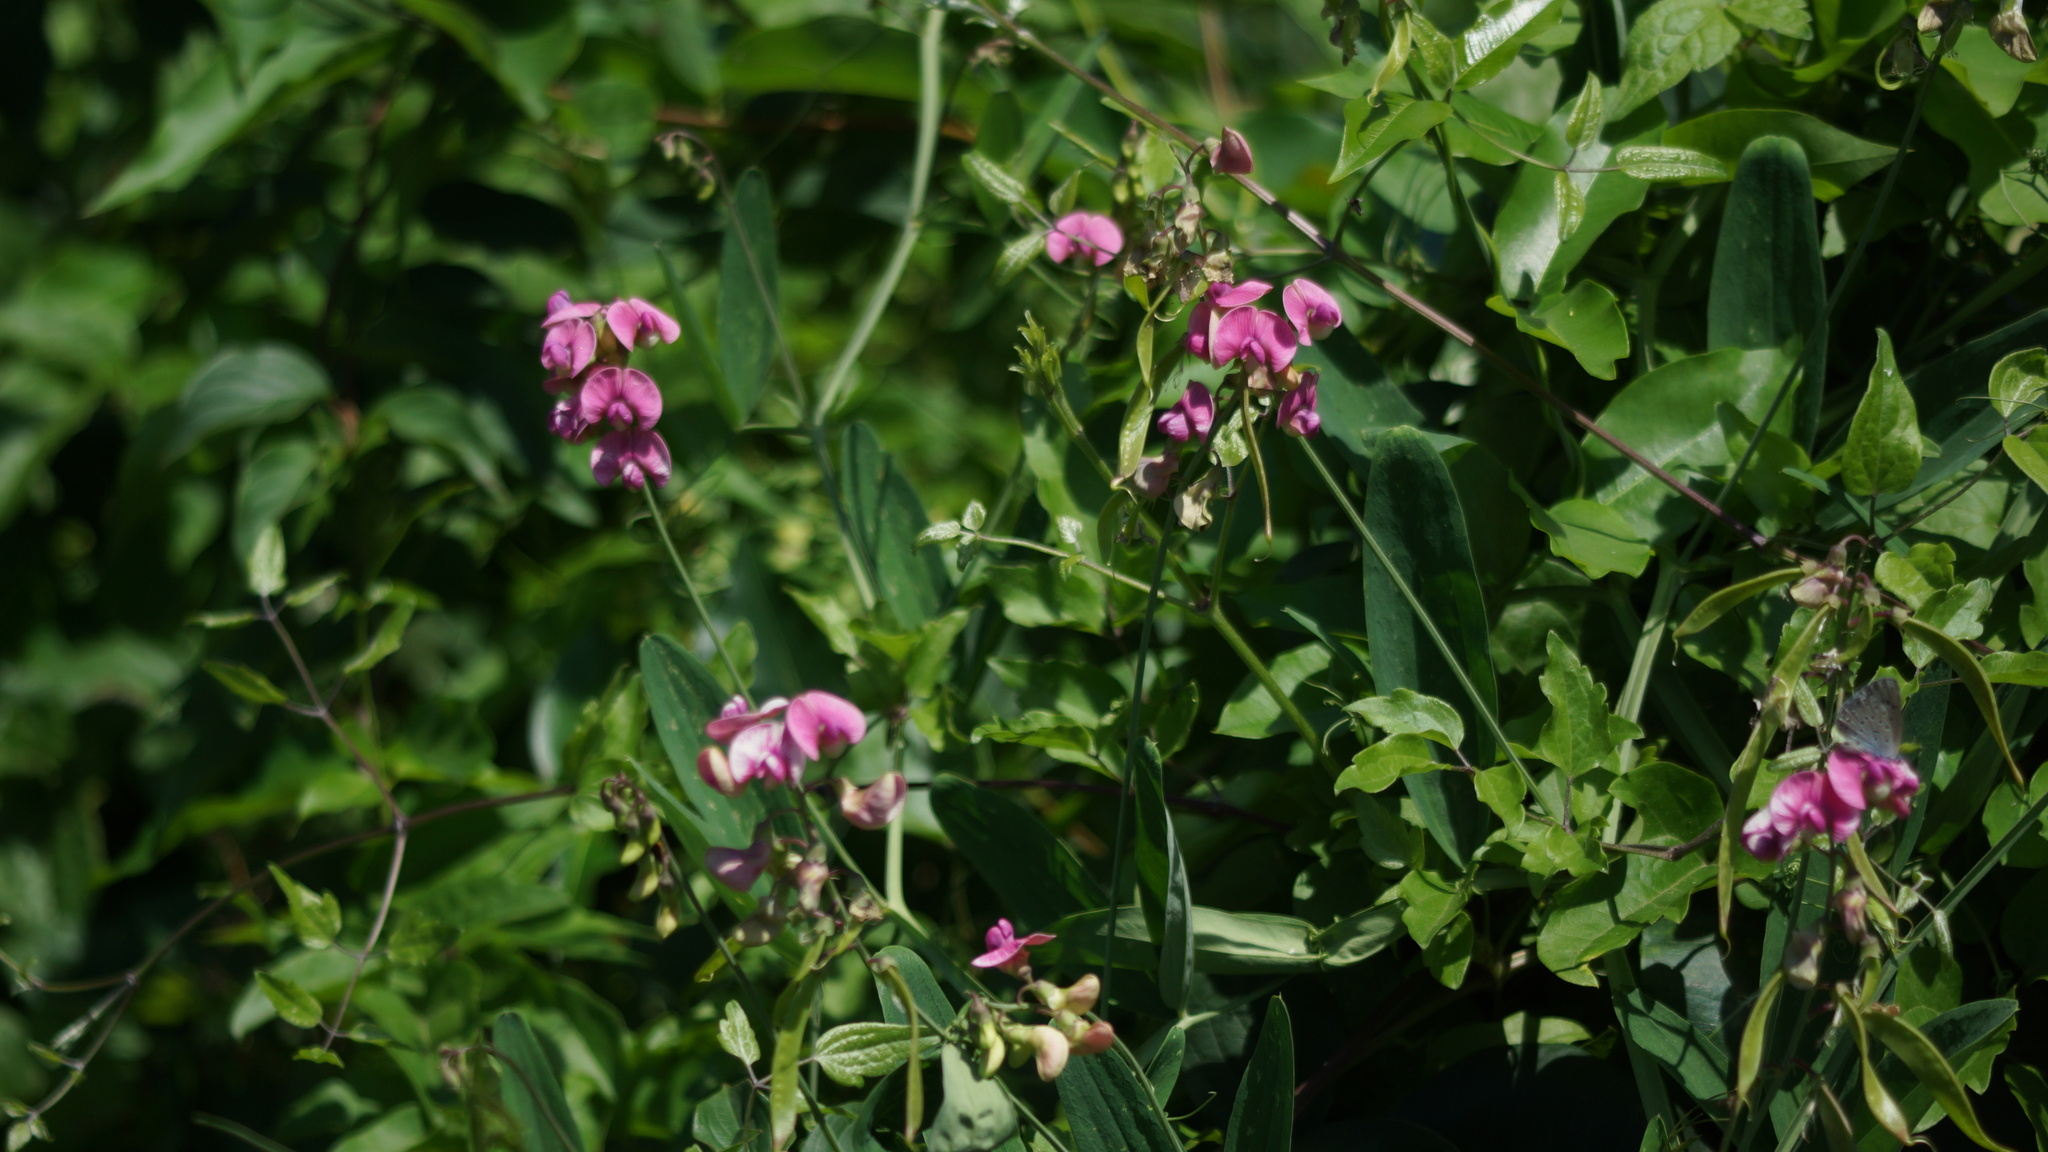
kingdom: Plantae
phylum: Tracheophyta
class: Magnoliopsida
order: Fabales
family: Fabaceae
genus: Lathyrus
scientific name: Lathyrus sylvestris
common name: Flat pea
